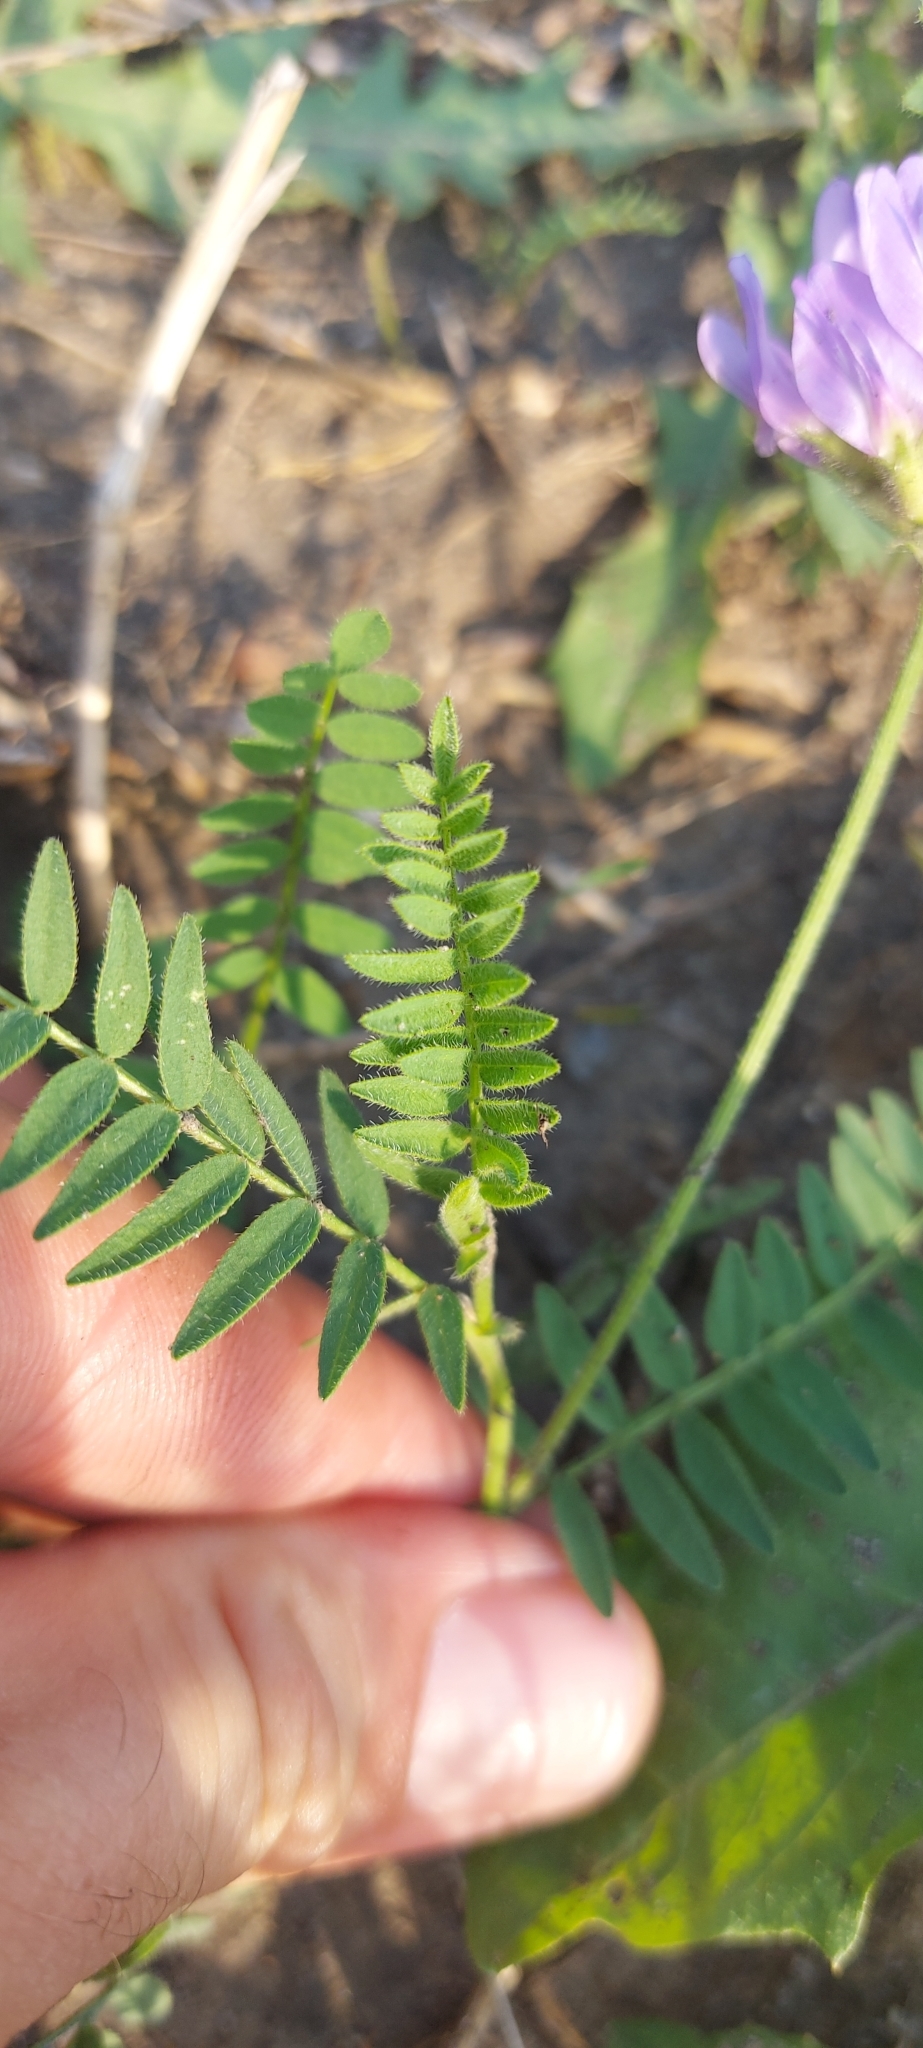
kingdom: Plantae
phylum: Tracheophyta
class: Magnoliopsida
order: Fabales
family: Fabaceae
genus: Astragalus
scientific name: Astragalus danicus
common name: Purple milk-vetch
